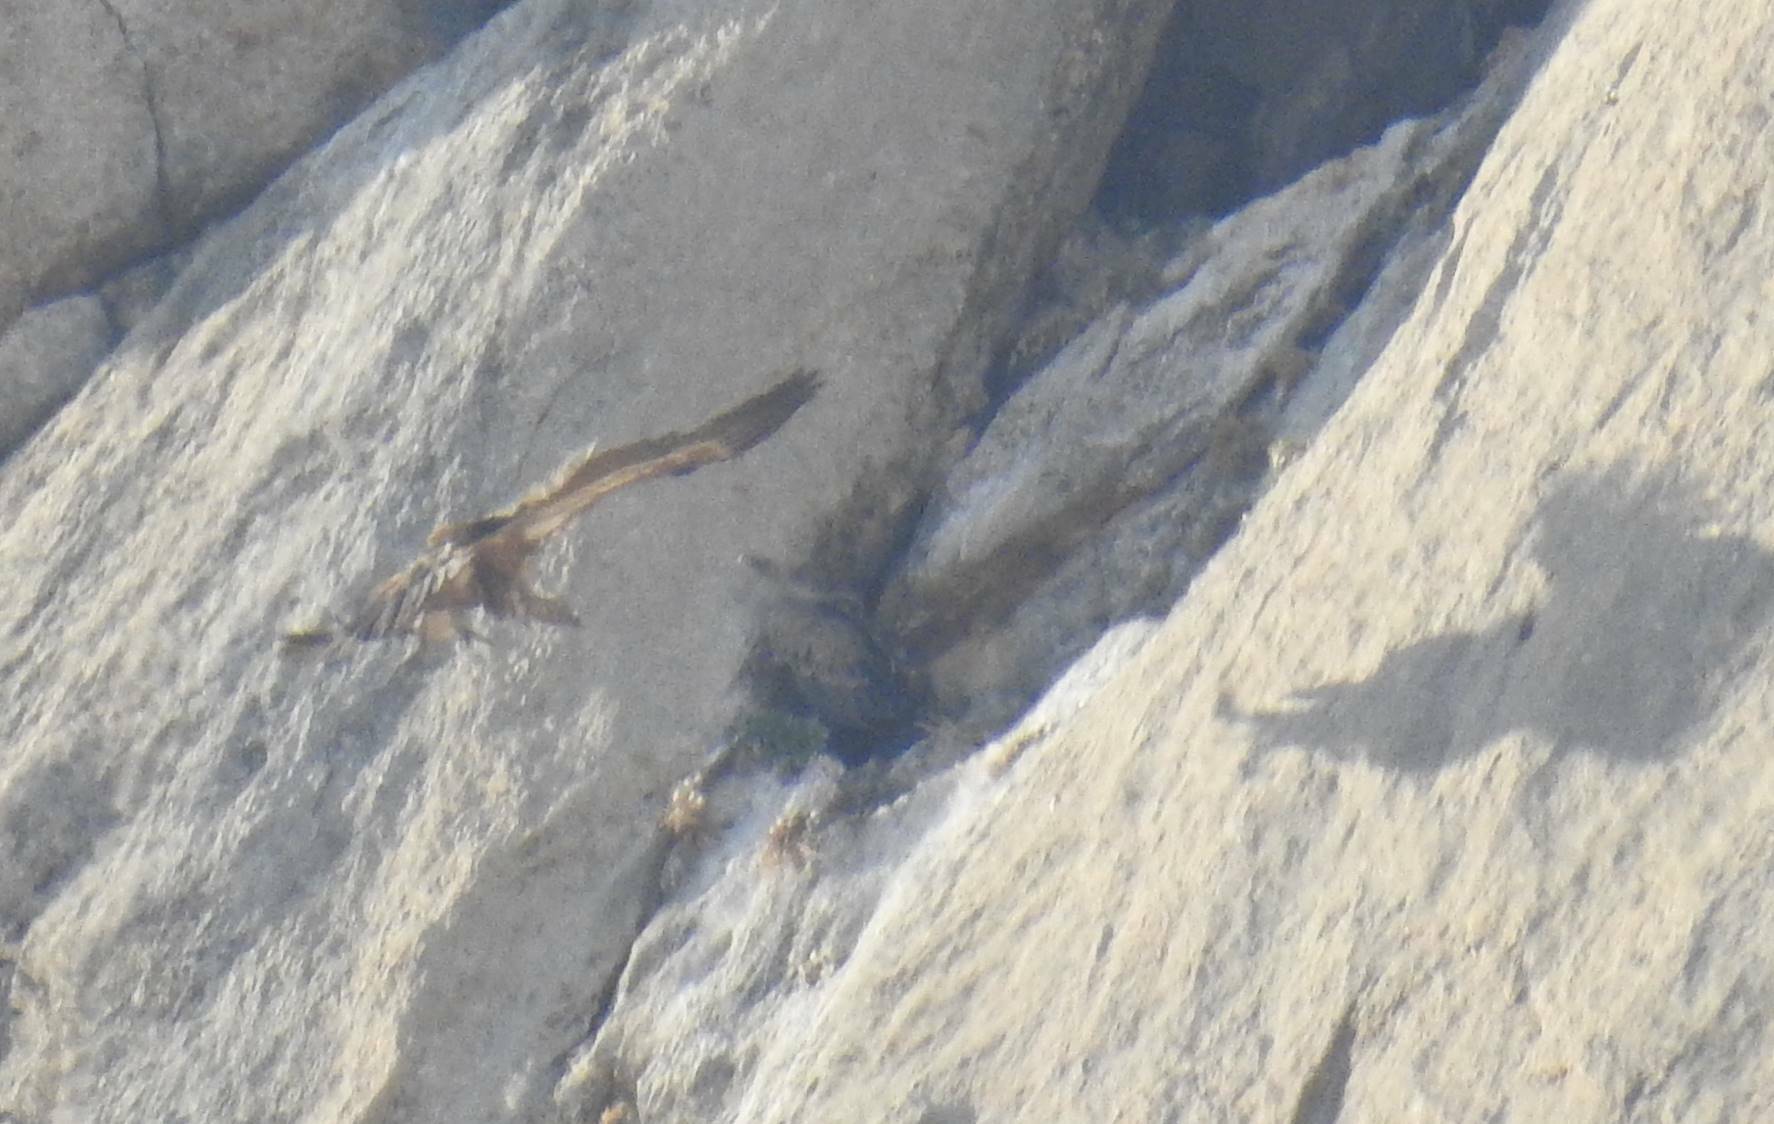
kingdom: Animalia
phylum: Chordata
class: Aves
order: Accipitriformes
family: Accipitridae
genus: Gyps
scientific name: Gyps fulvus
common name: Griffon vulture
